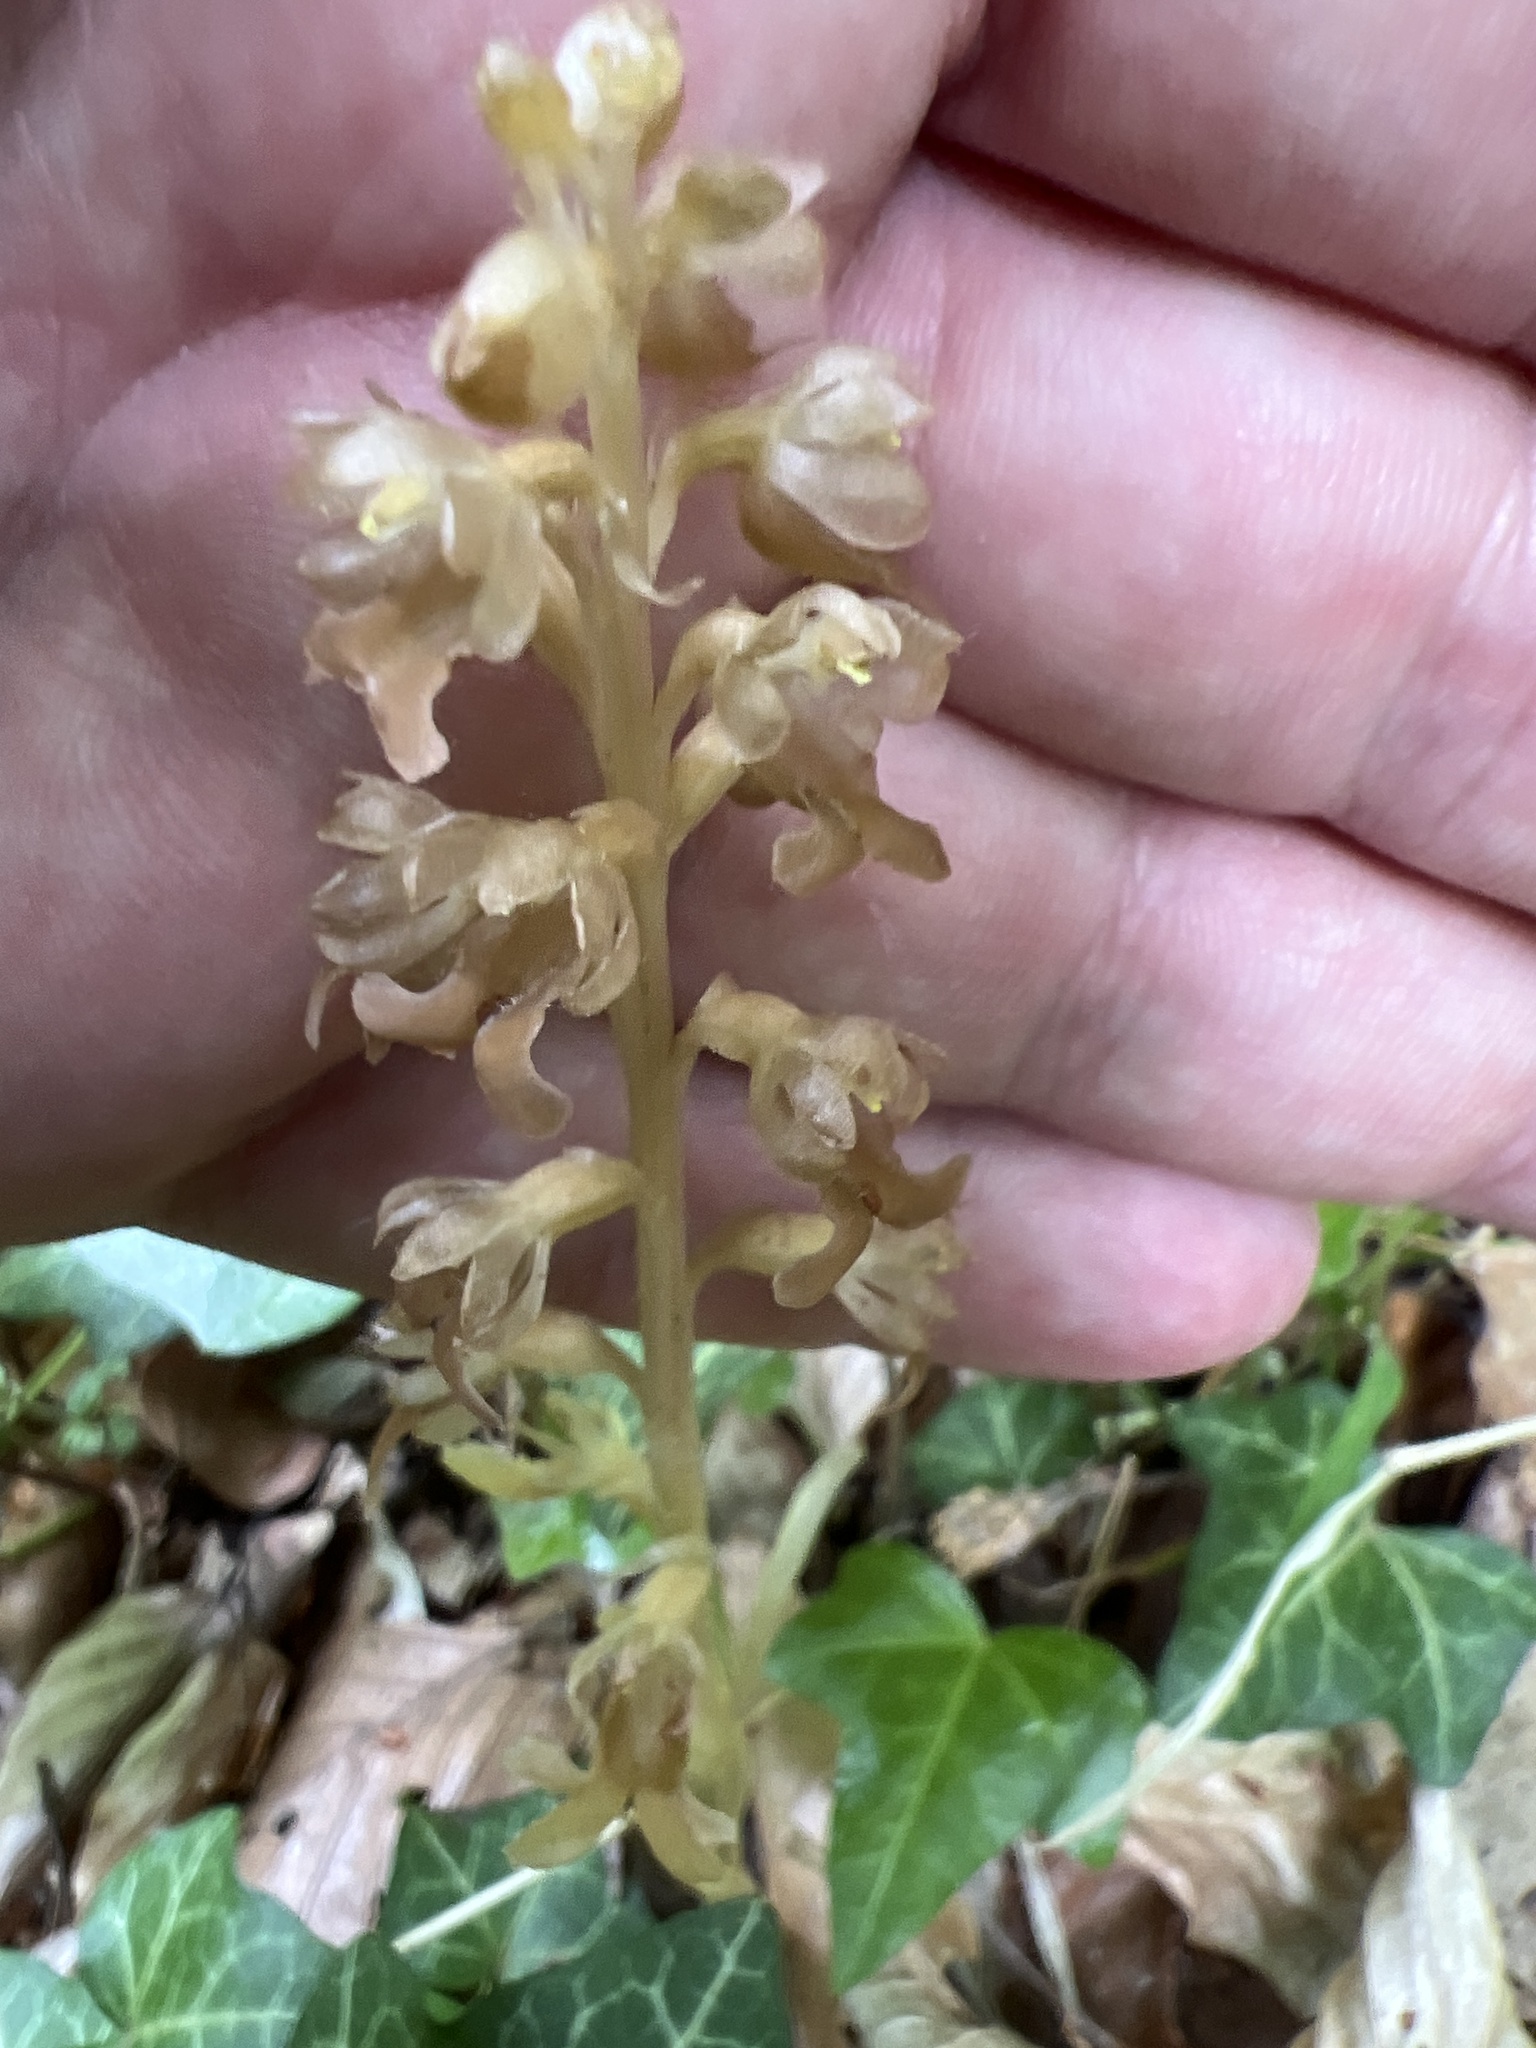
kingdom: Plantae
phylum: Tracheophyta
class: Liliopsida
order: Asparagales
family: Orchidaceae
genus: Neottia
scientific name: Neottia nidus-avis
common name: Bird's-nest orchid
